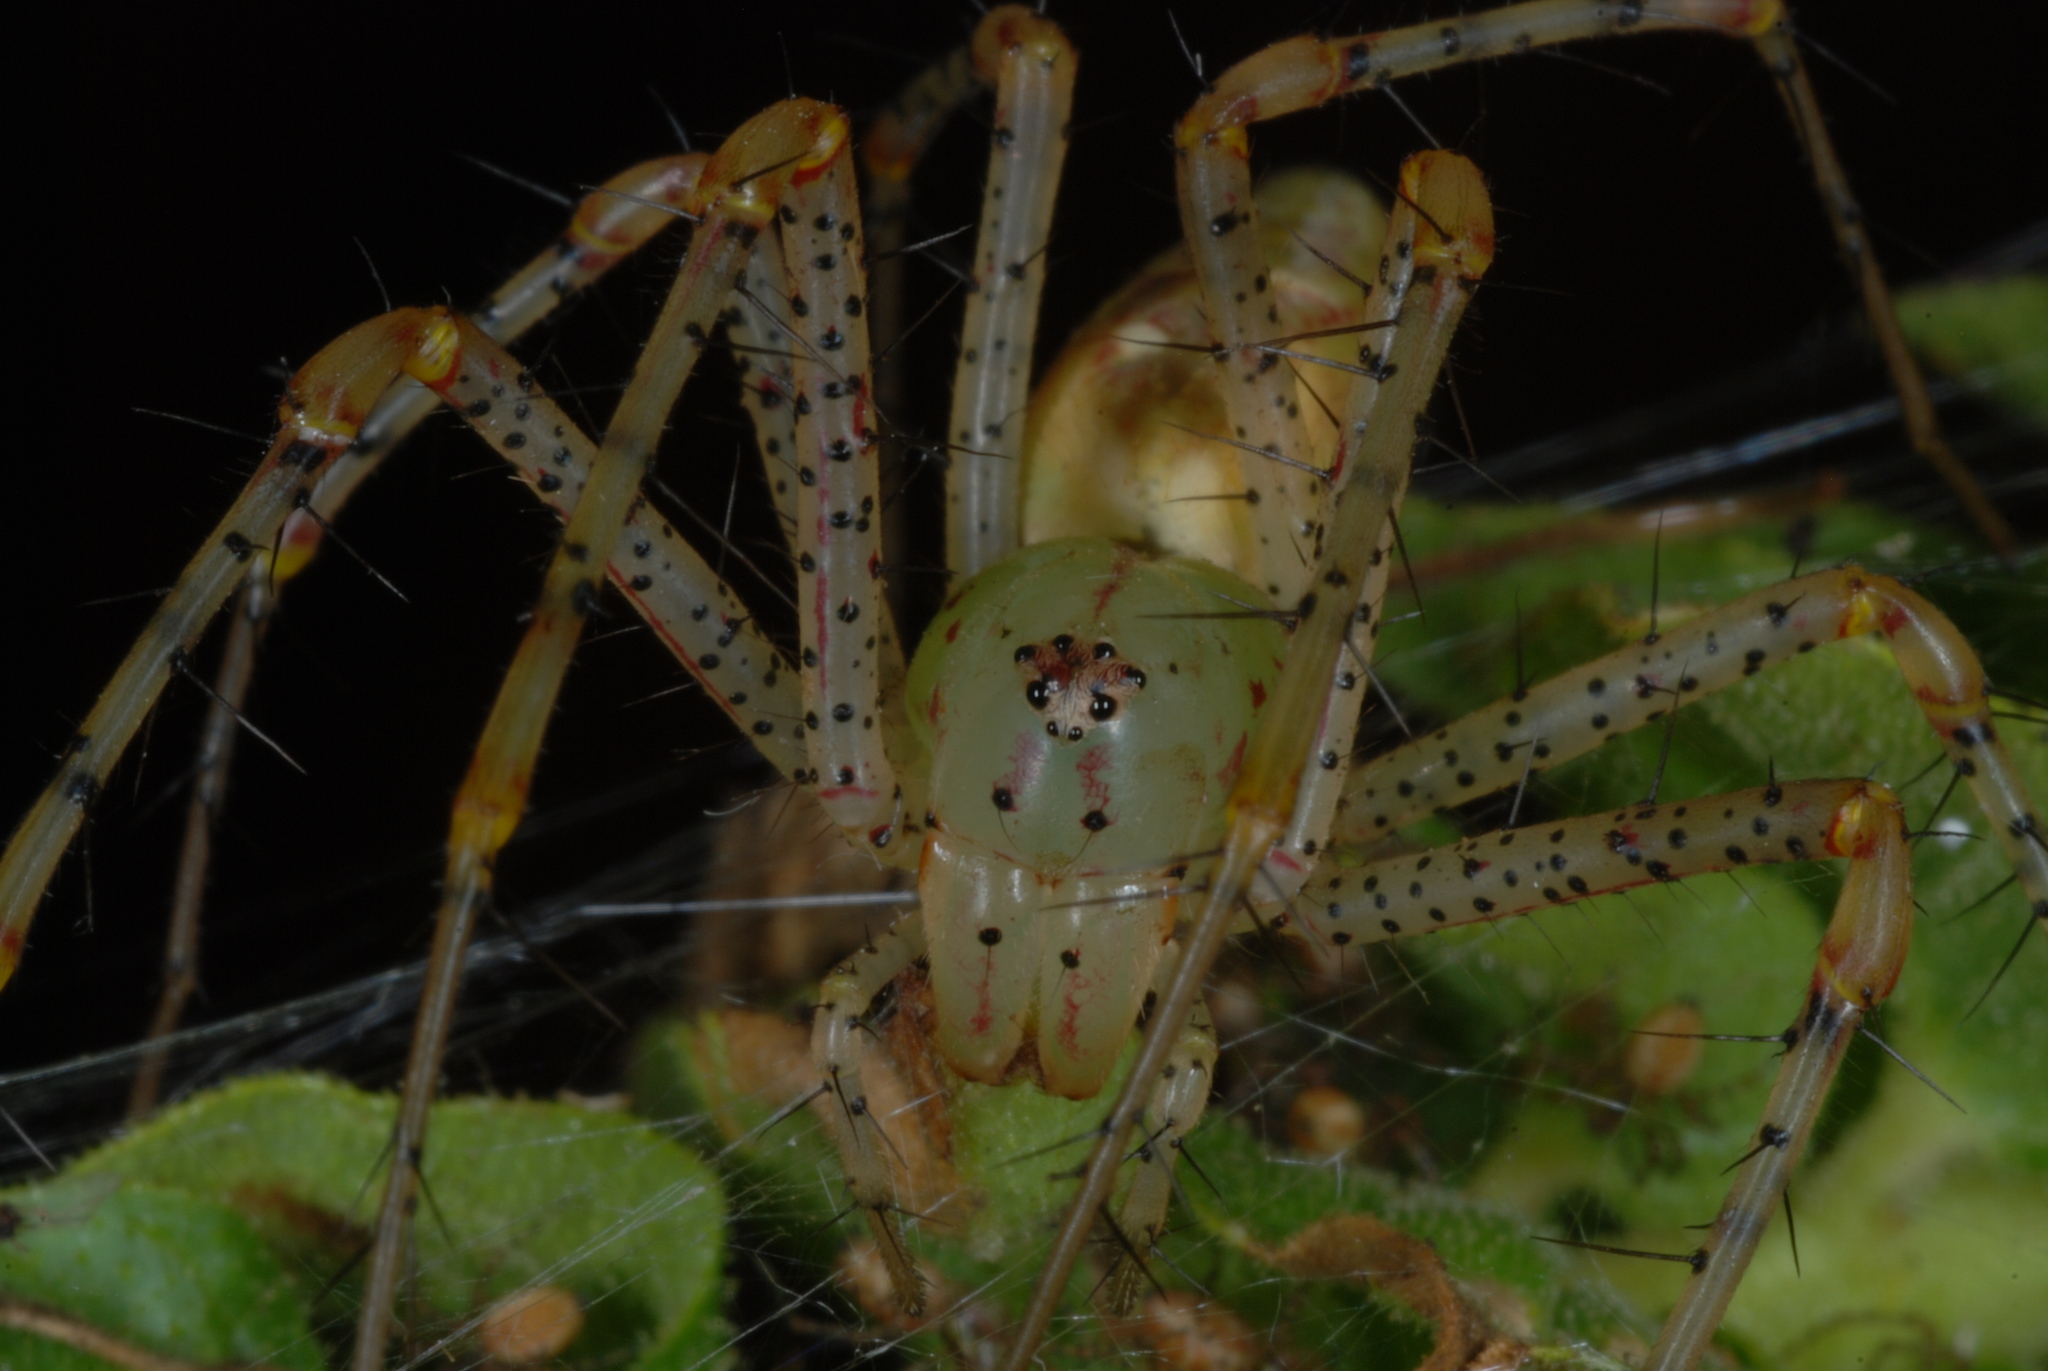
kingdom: Animalia
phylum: Arthropoda
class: Arachnida
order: Araneae
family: Oxyopidae
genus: Peucetia
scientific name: Peucetia viridans
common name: Lynx spiders
